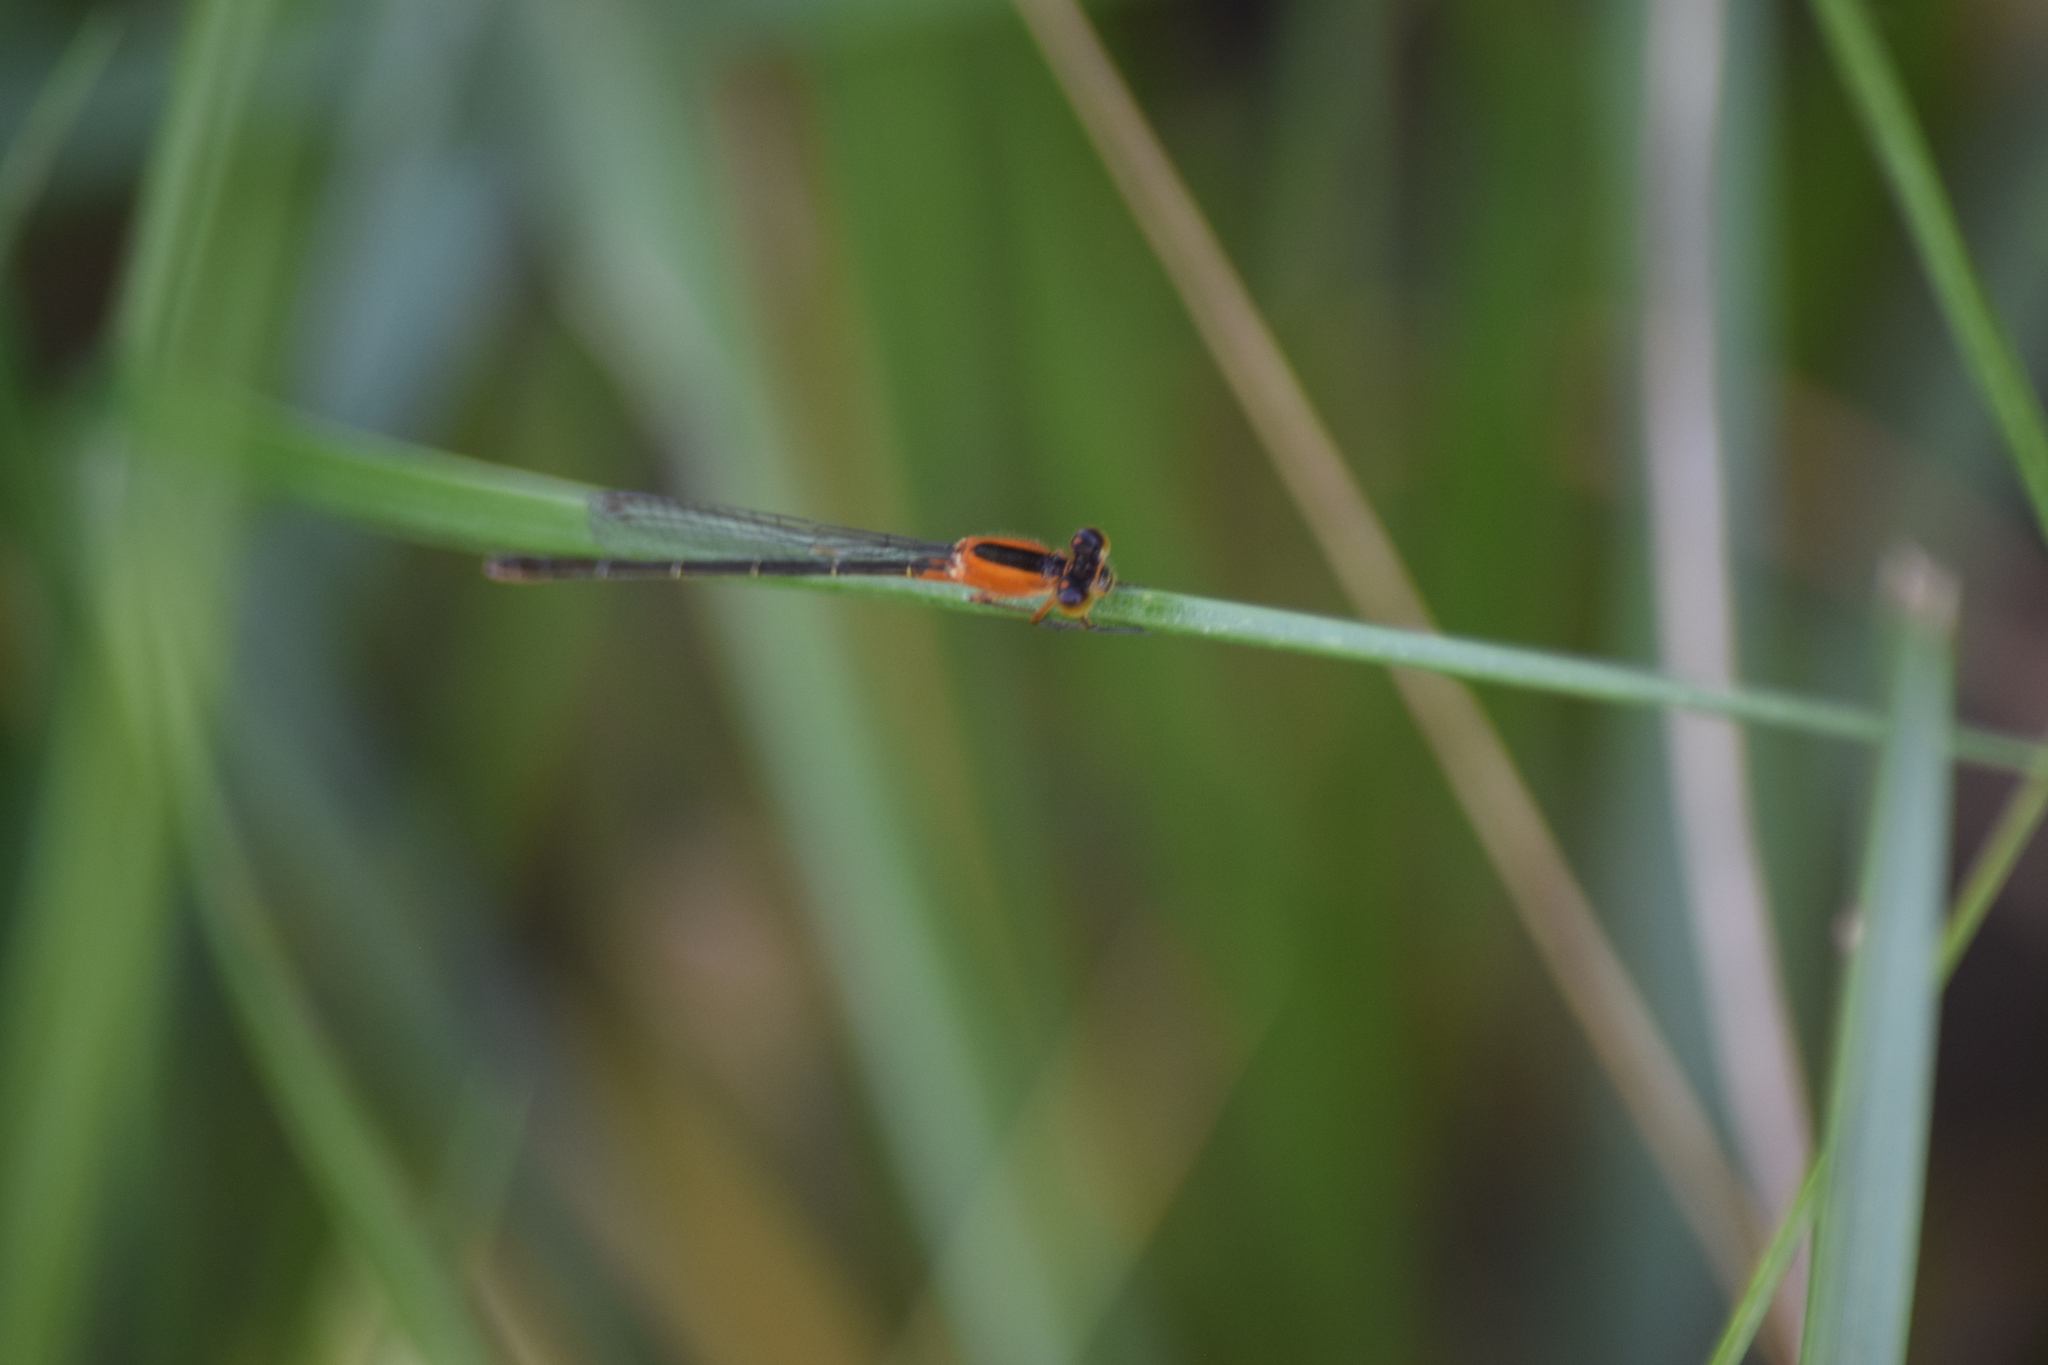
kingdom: Animalia
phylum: Arthropoda
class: Insecta
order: Odonata
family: Coenagrionidae
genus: Ischnura
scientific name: Ischnura ramburii
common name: Rambur's forktail
